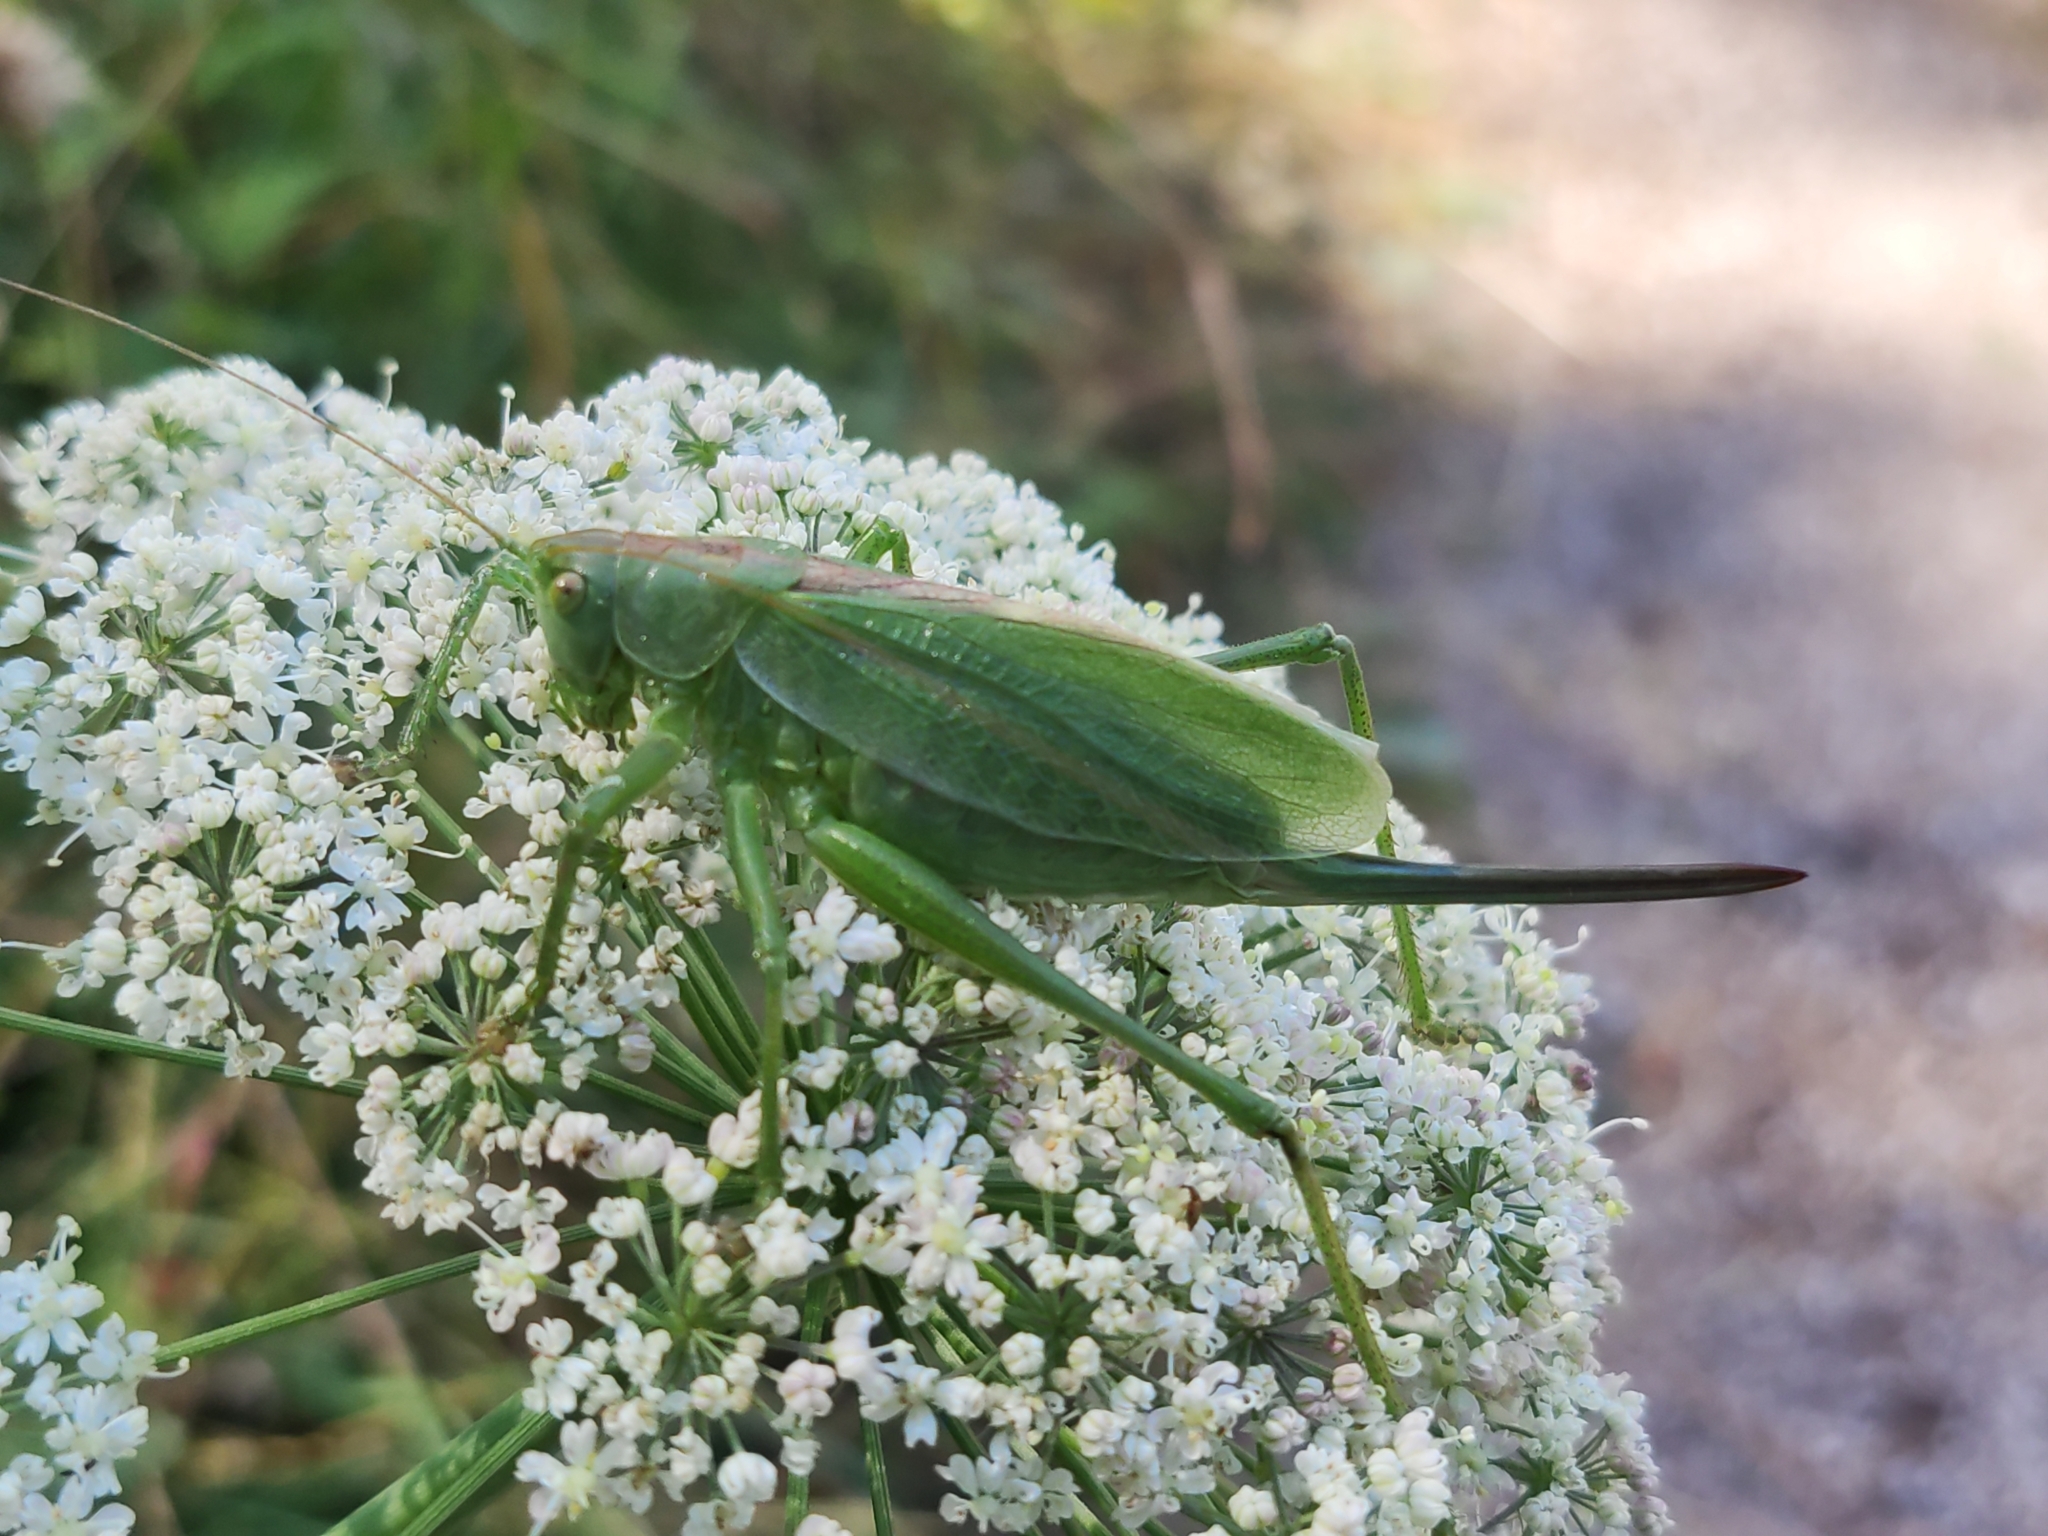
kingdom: Animalia
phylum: Arthropoda
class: Insecta
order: Orthoptera
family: Tettigoniidae
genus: Tettigonia
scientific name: Tettigonia cantans
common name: Upland green bush-cricket
